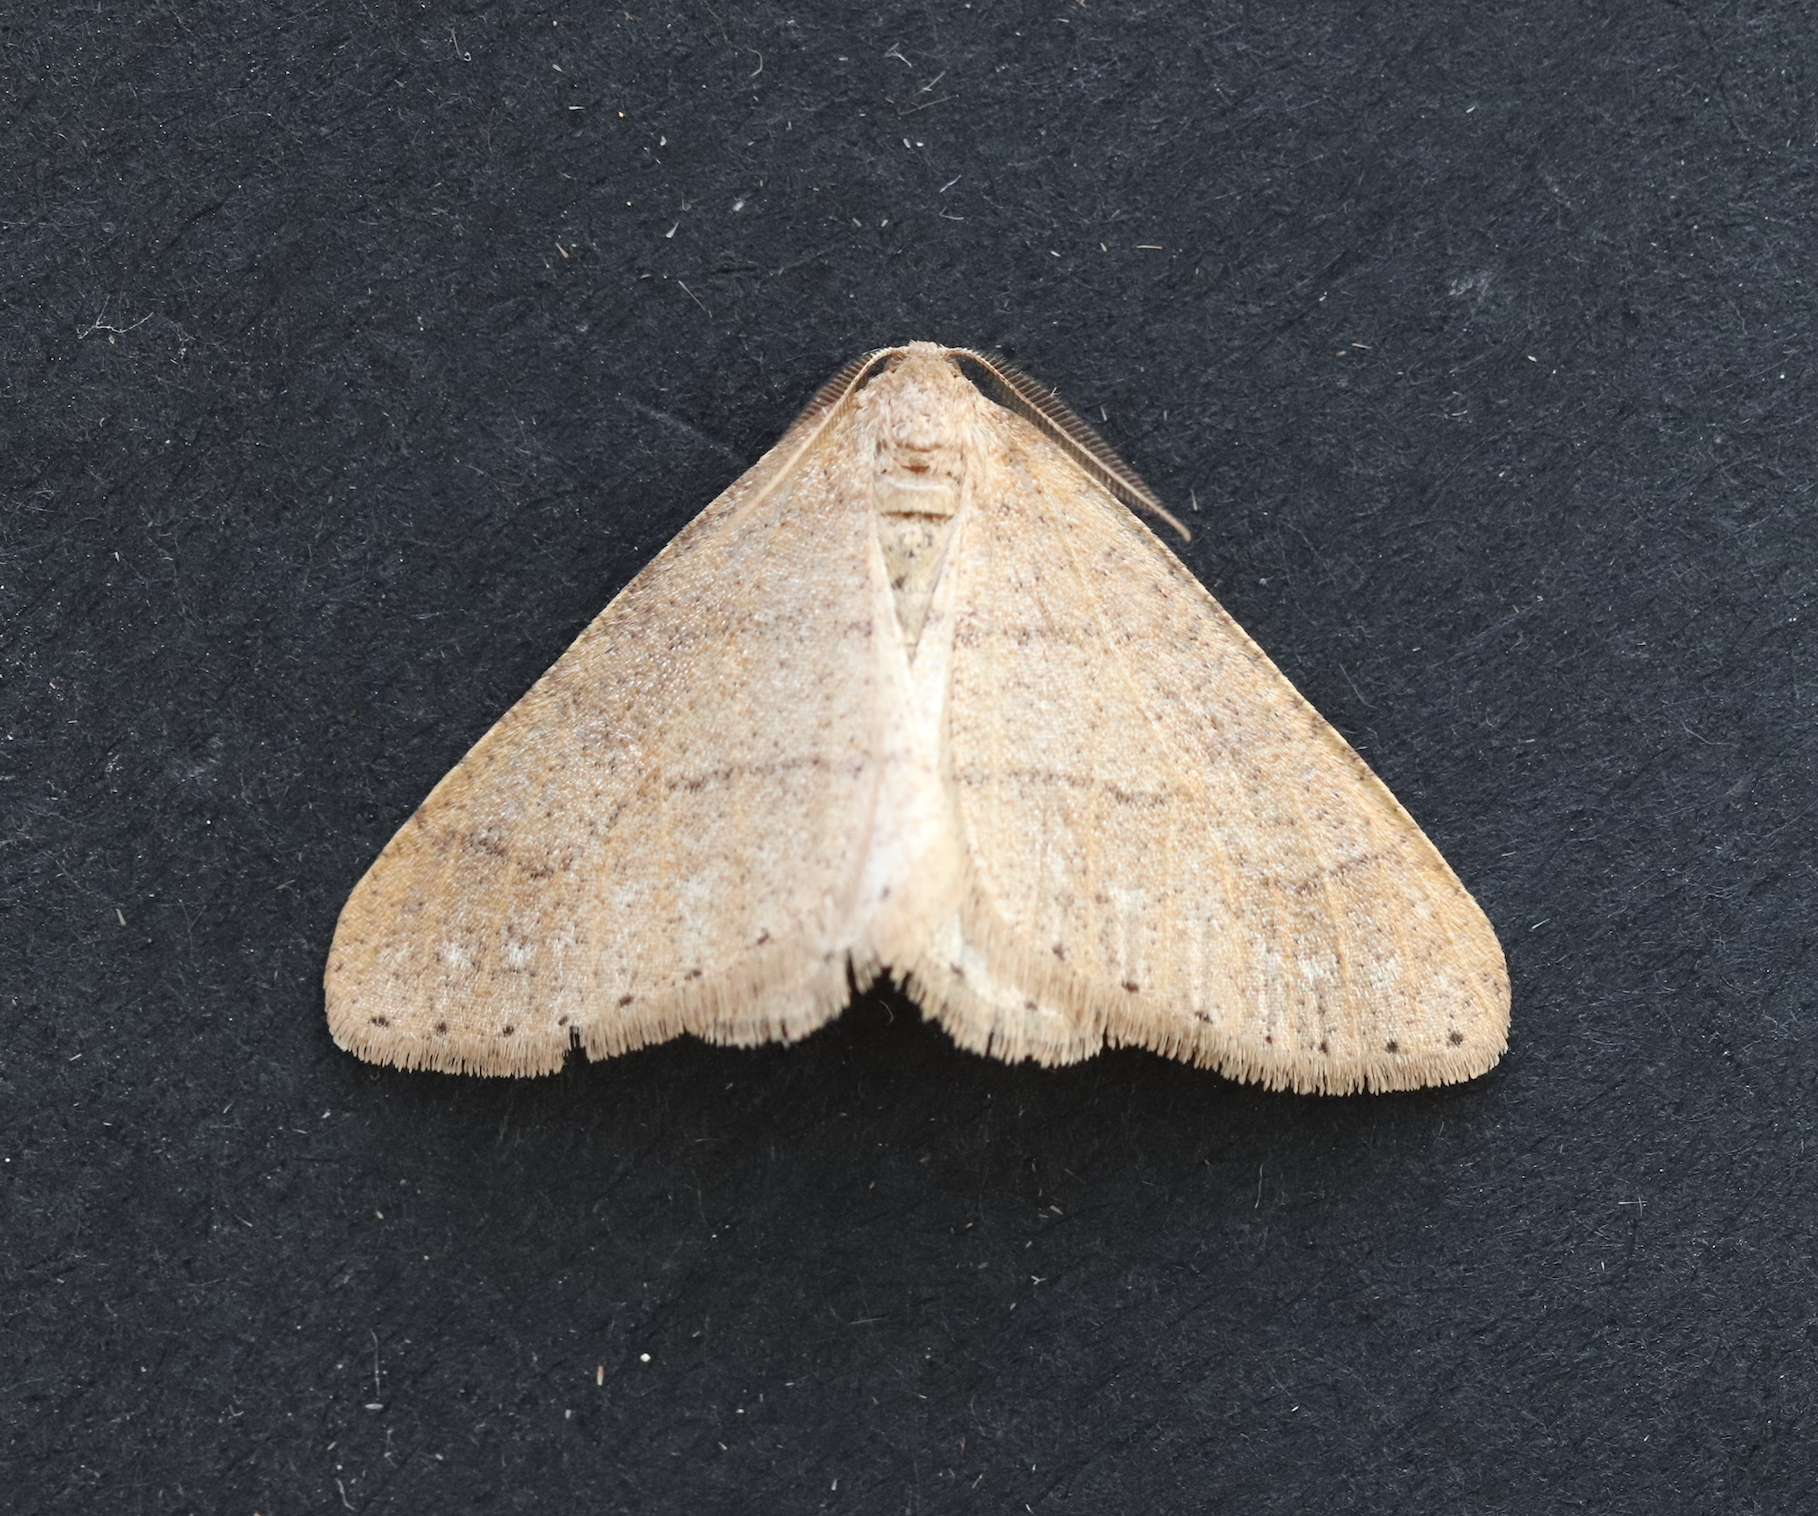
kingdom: Animalia
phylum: Arthropoda
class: Insecta
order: Lepidoptera
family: Geometridae
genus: Agriopis
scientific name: Agriopis marginaria
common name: Dotted border
